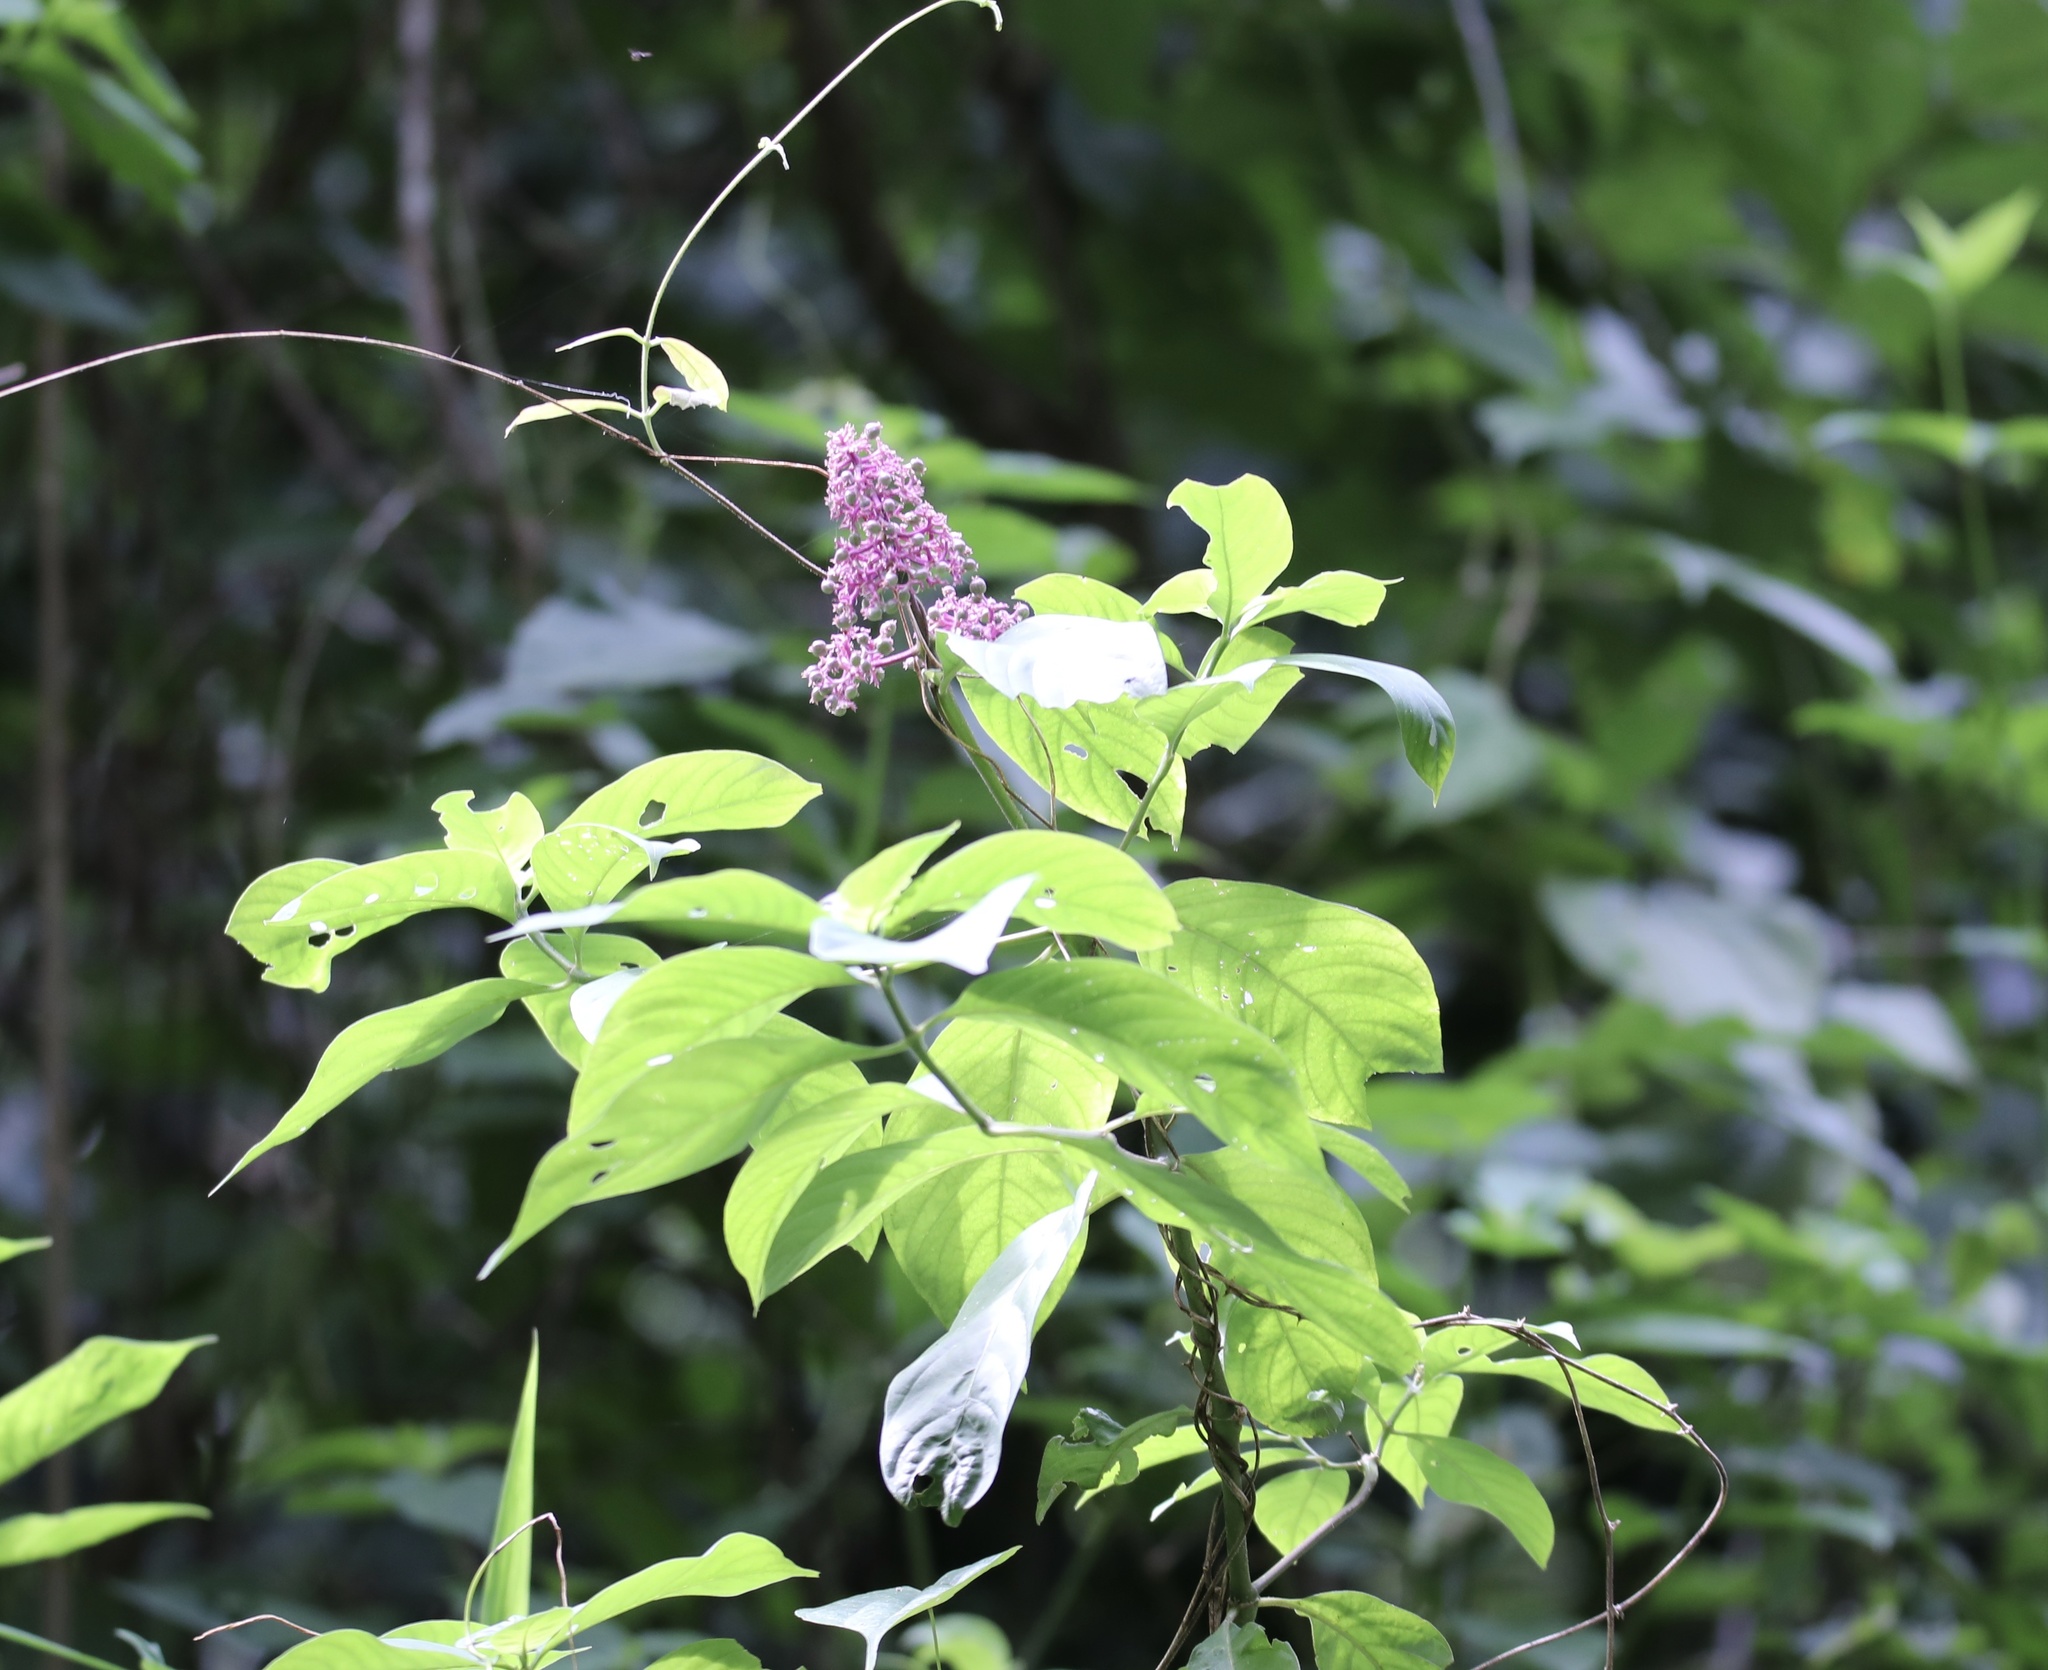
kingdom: Plantae
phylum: Tracheophyta
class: Magnoliopsida
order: Gentianales
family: Rubiaceae
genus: Palicourea
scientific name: Palicourea hebeclada
